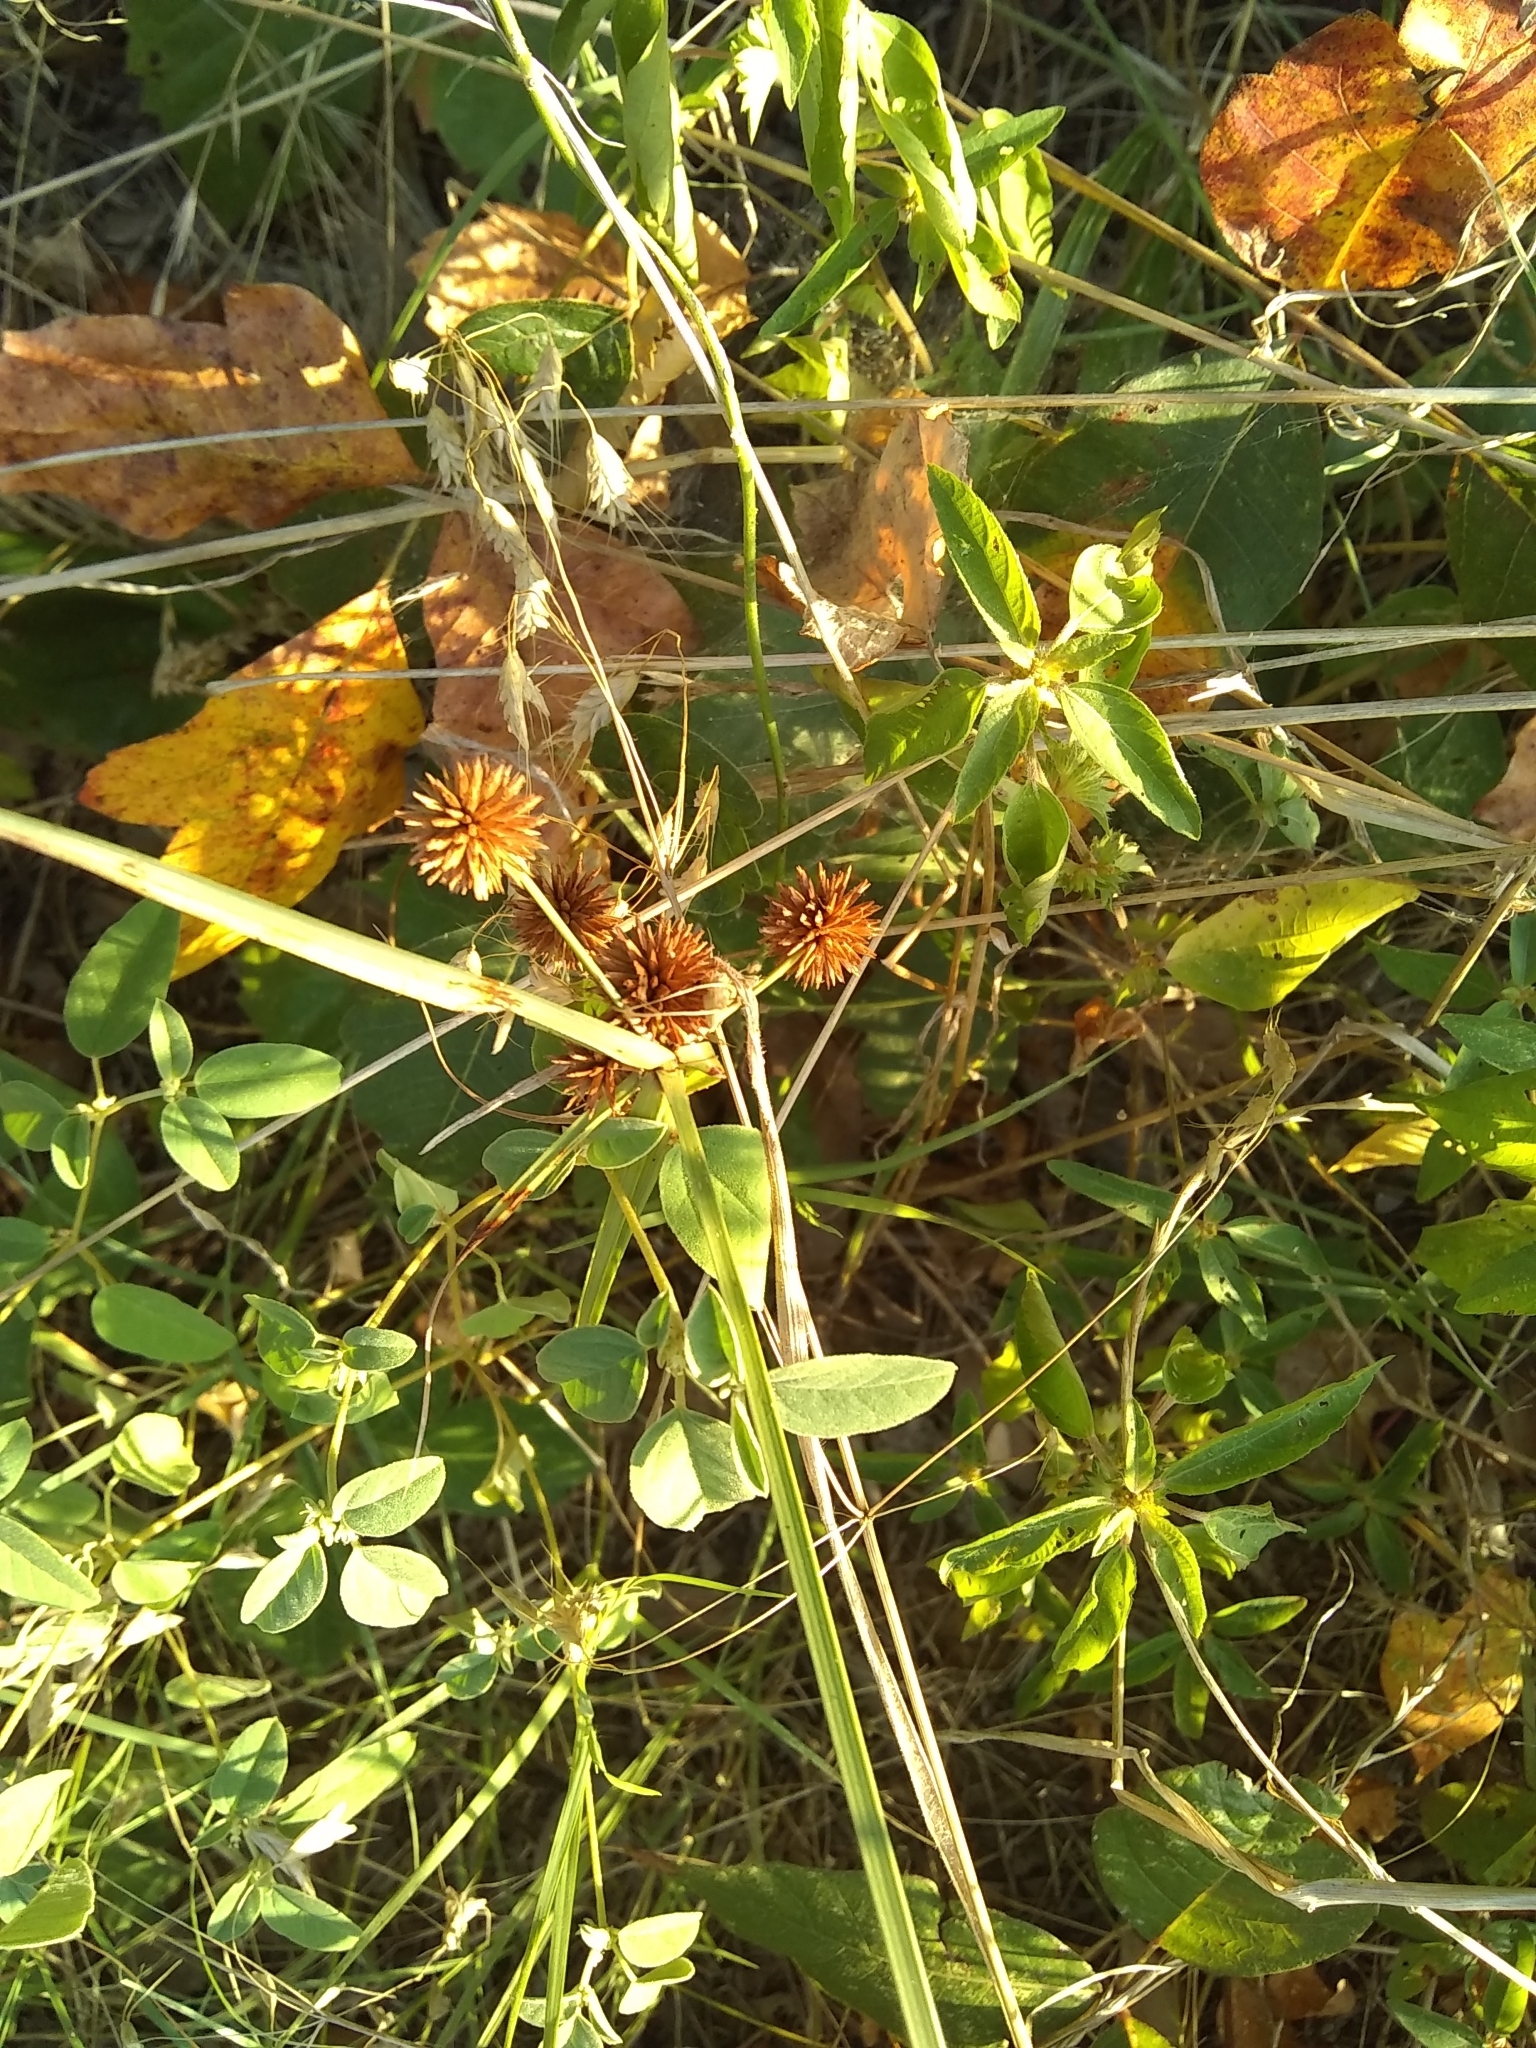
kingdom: Plantae
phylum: Tracheophyta
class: Liliopsida
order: Poales
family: Cyperaceae
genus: Cyperus
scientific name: Cyperus echinatus
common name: Teasel sedge
